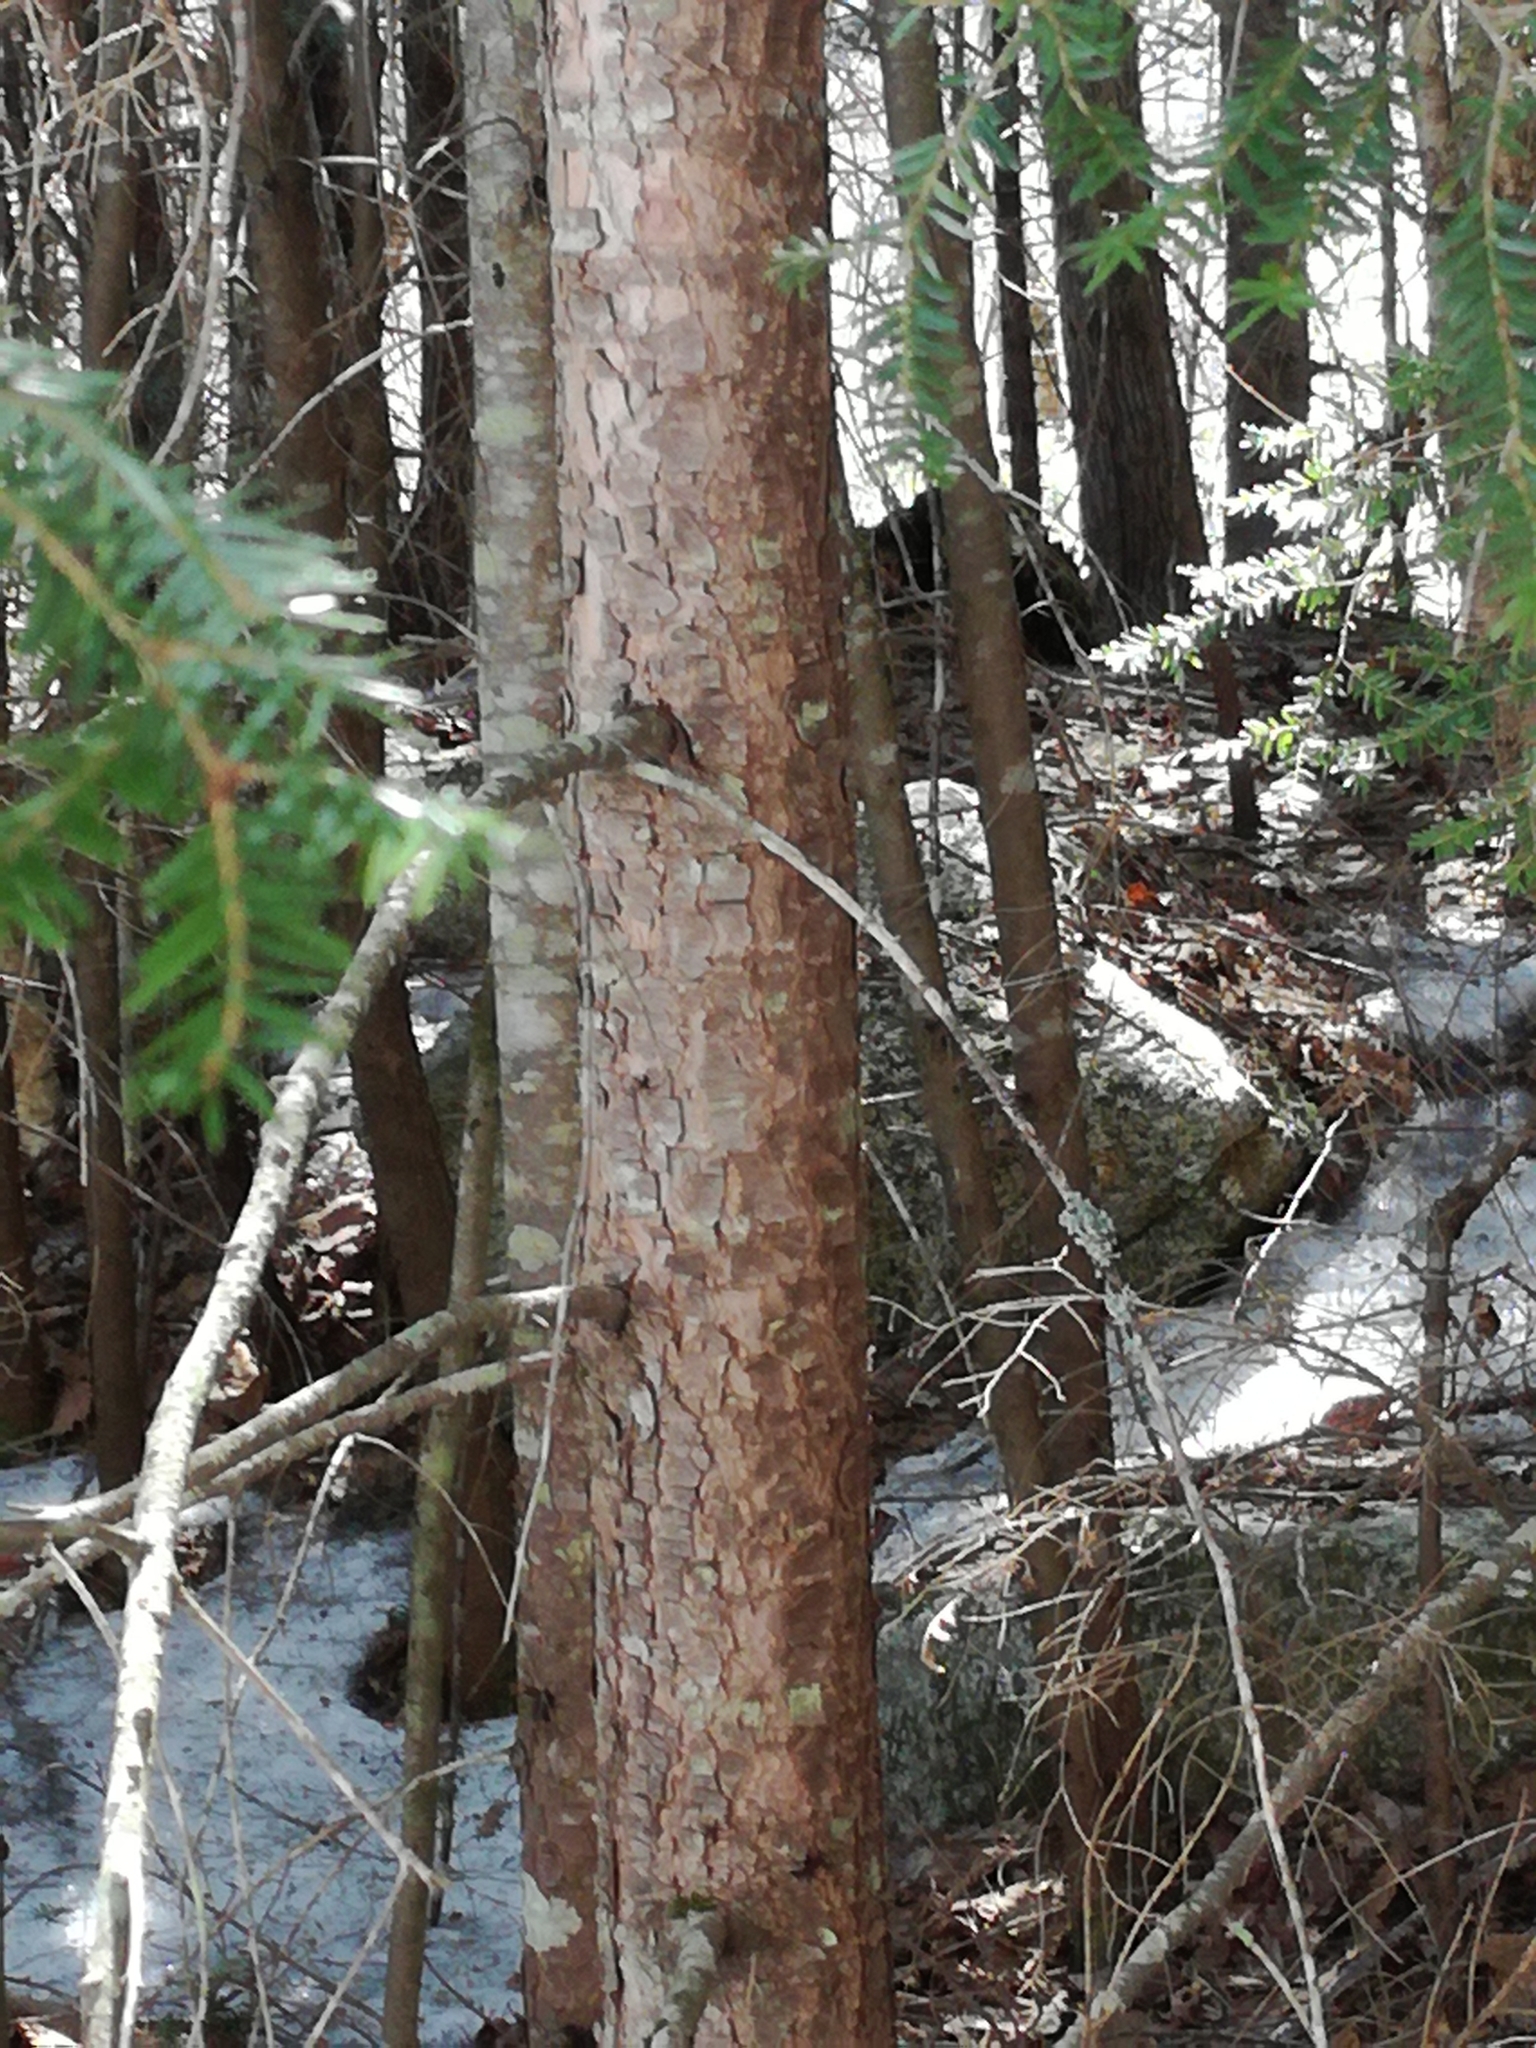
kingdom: Plantae
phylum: Tracheophyta
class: Pinopsida
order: Pinales
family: Pinaceae
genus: Tsuga
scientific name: Tsuga canadensis
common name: Eastern hemlock
